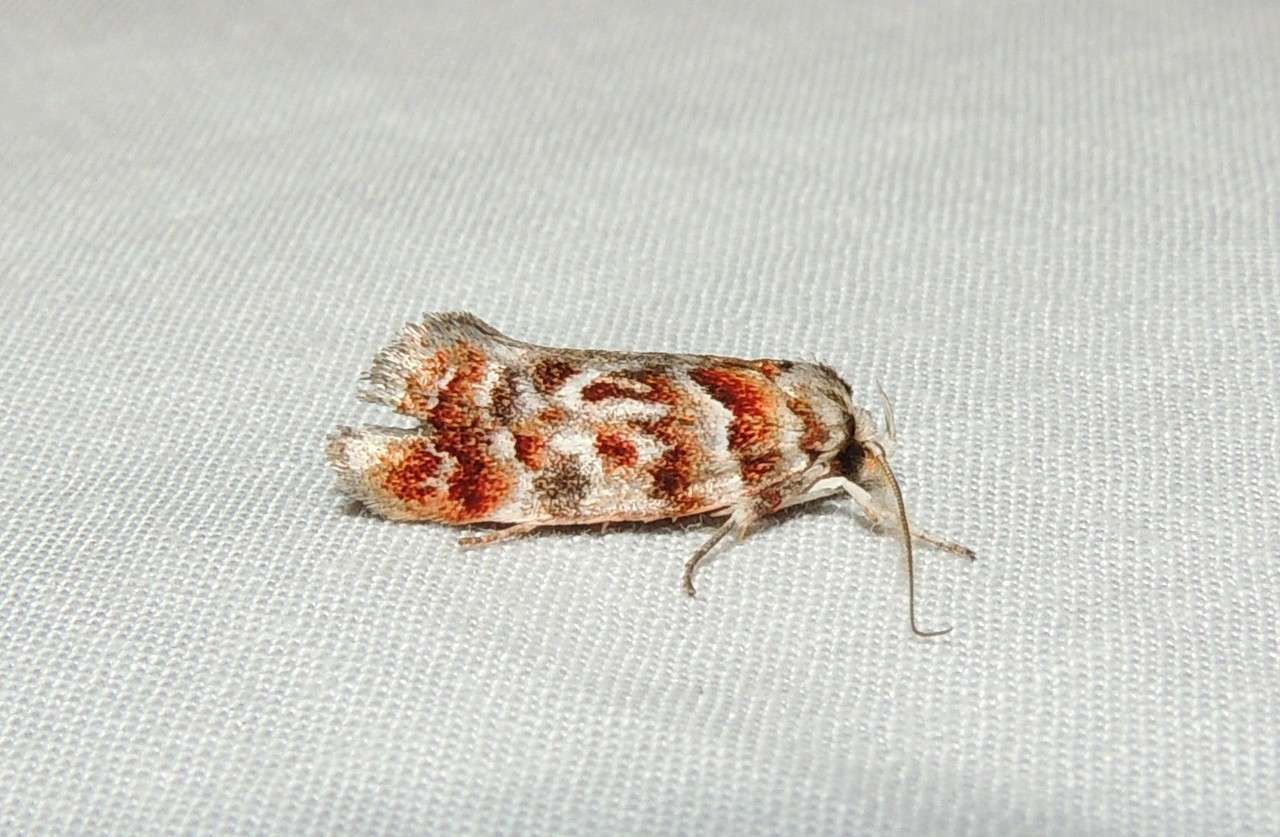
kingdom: Animalia
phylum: Arthropoda
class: Insecta
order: Lepidoptera
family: Oecophoridae
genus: Acmotoma
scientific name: Acmotoma magniferella
